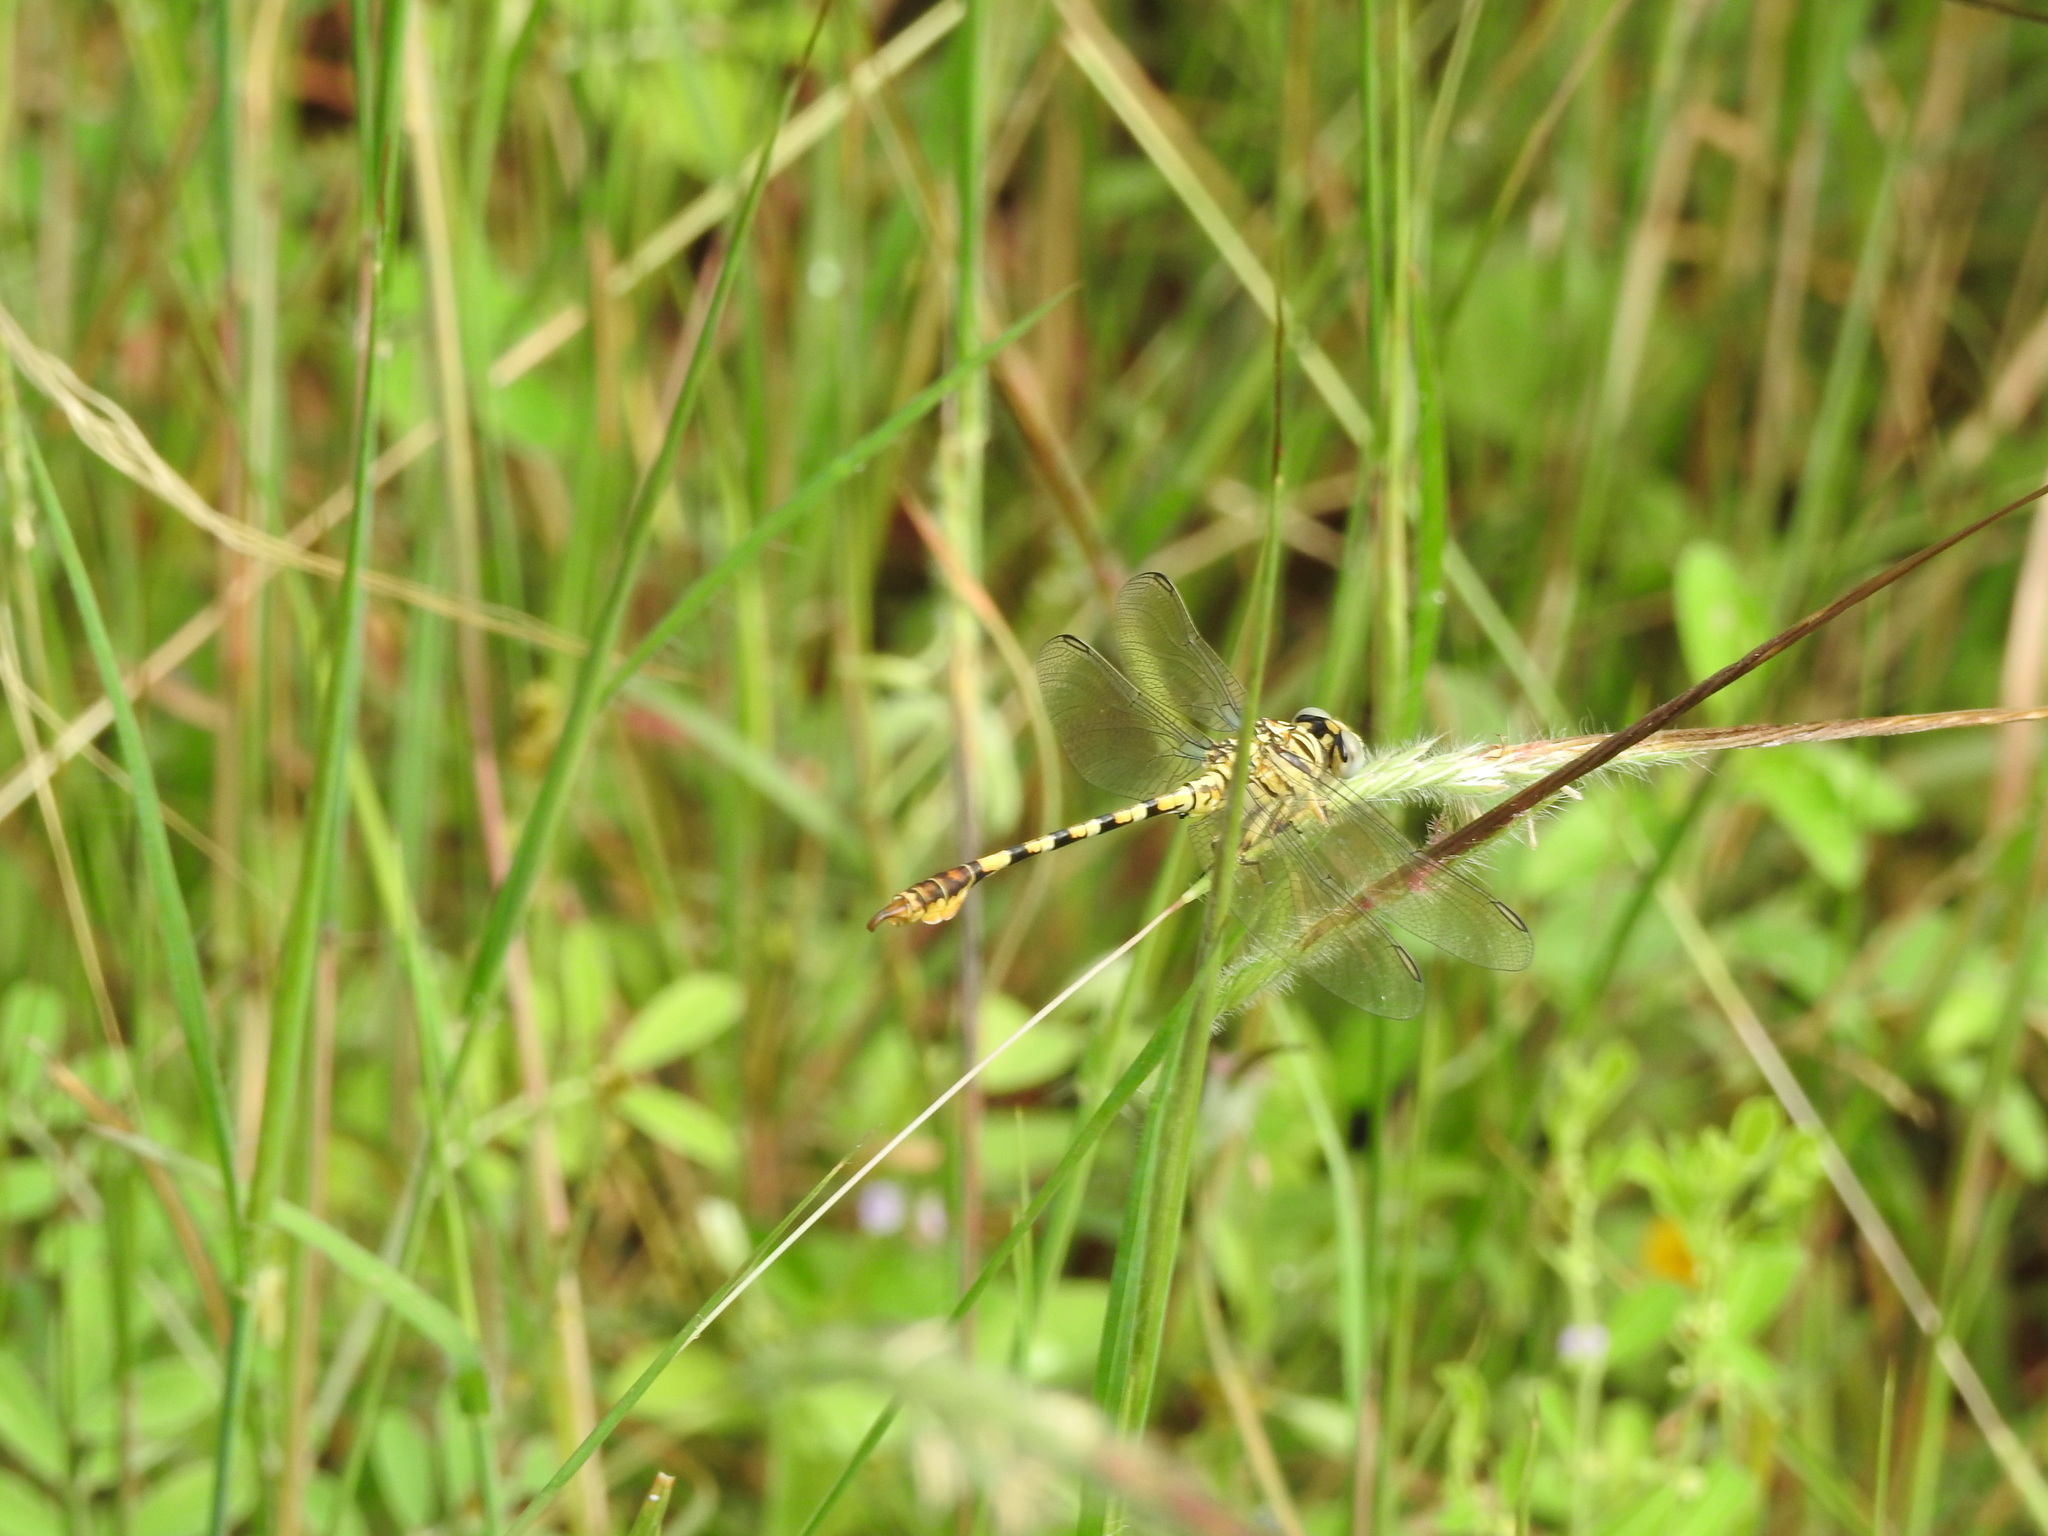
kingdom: Animalia
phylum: Arthropoda
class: Insecta
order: Odonata
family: Gomphidae
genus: Paragomphus
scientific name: Paragomphus lineatus
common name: Lined hooktail
